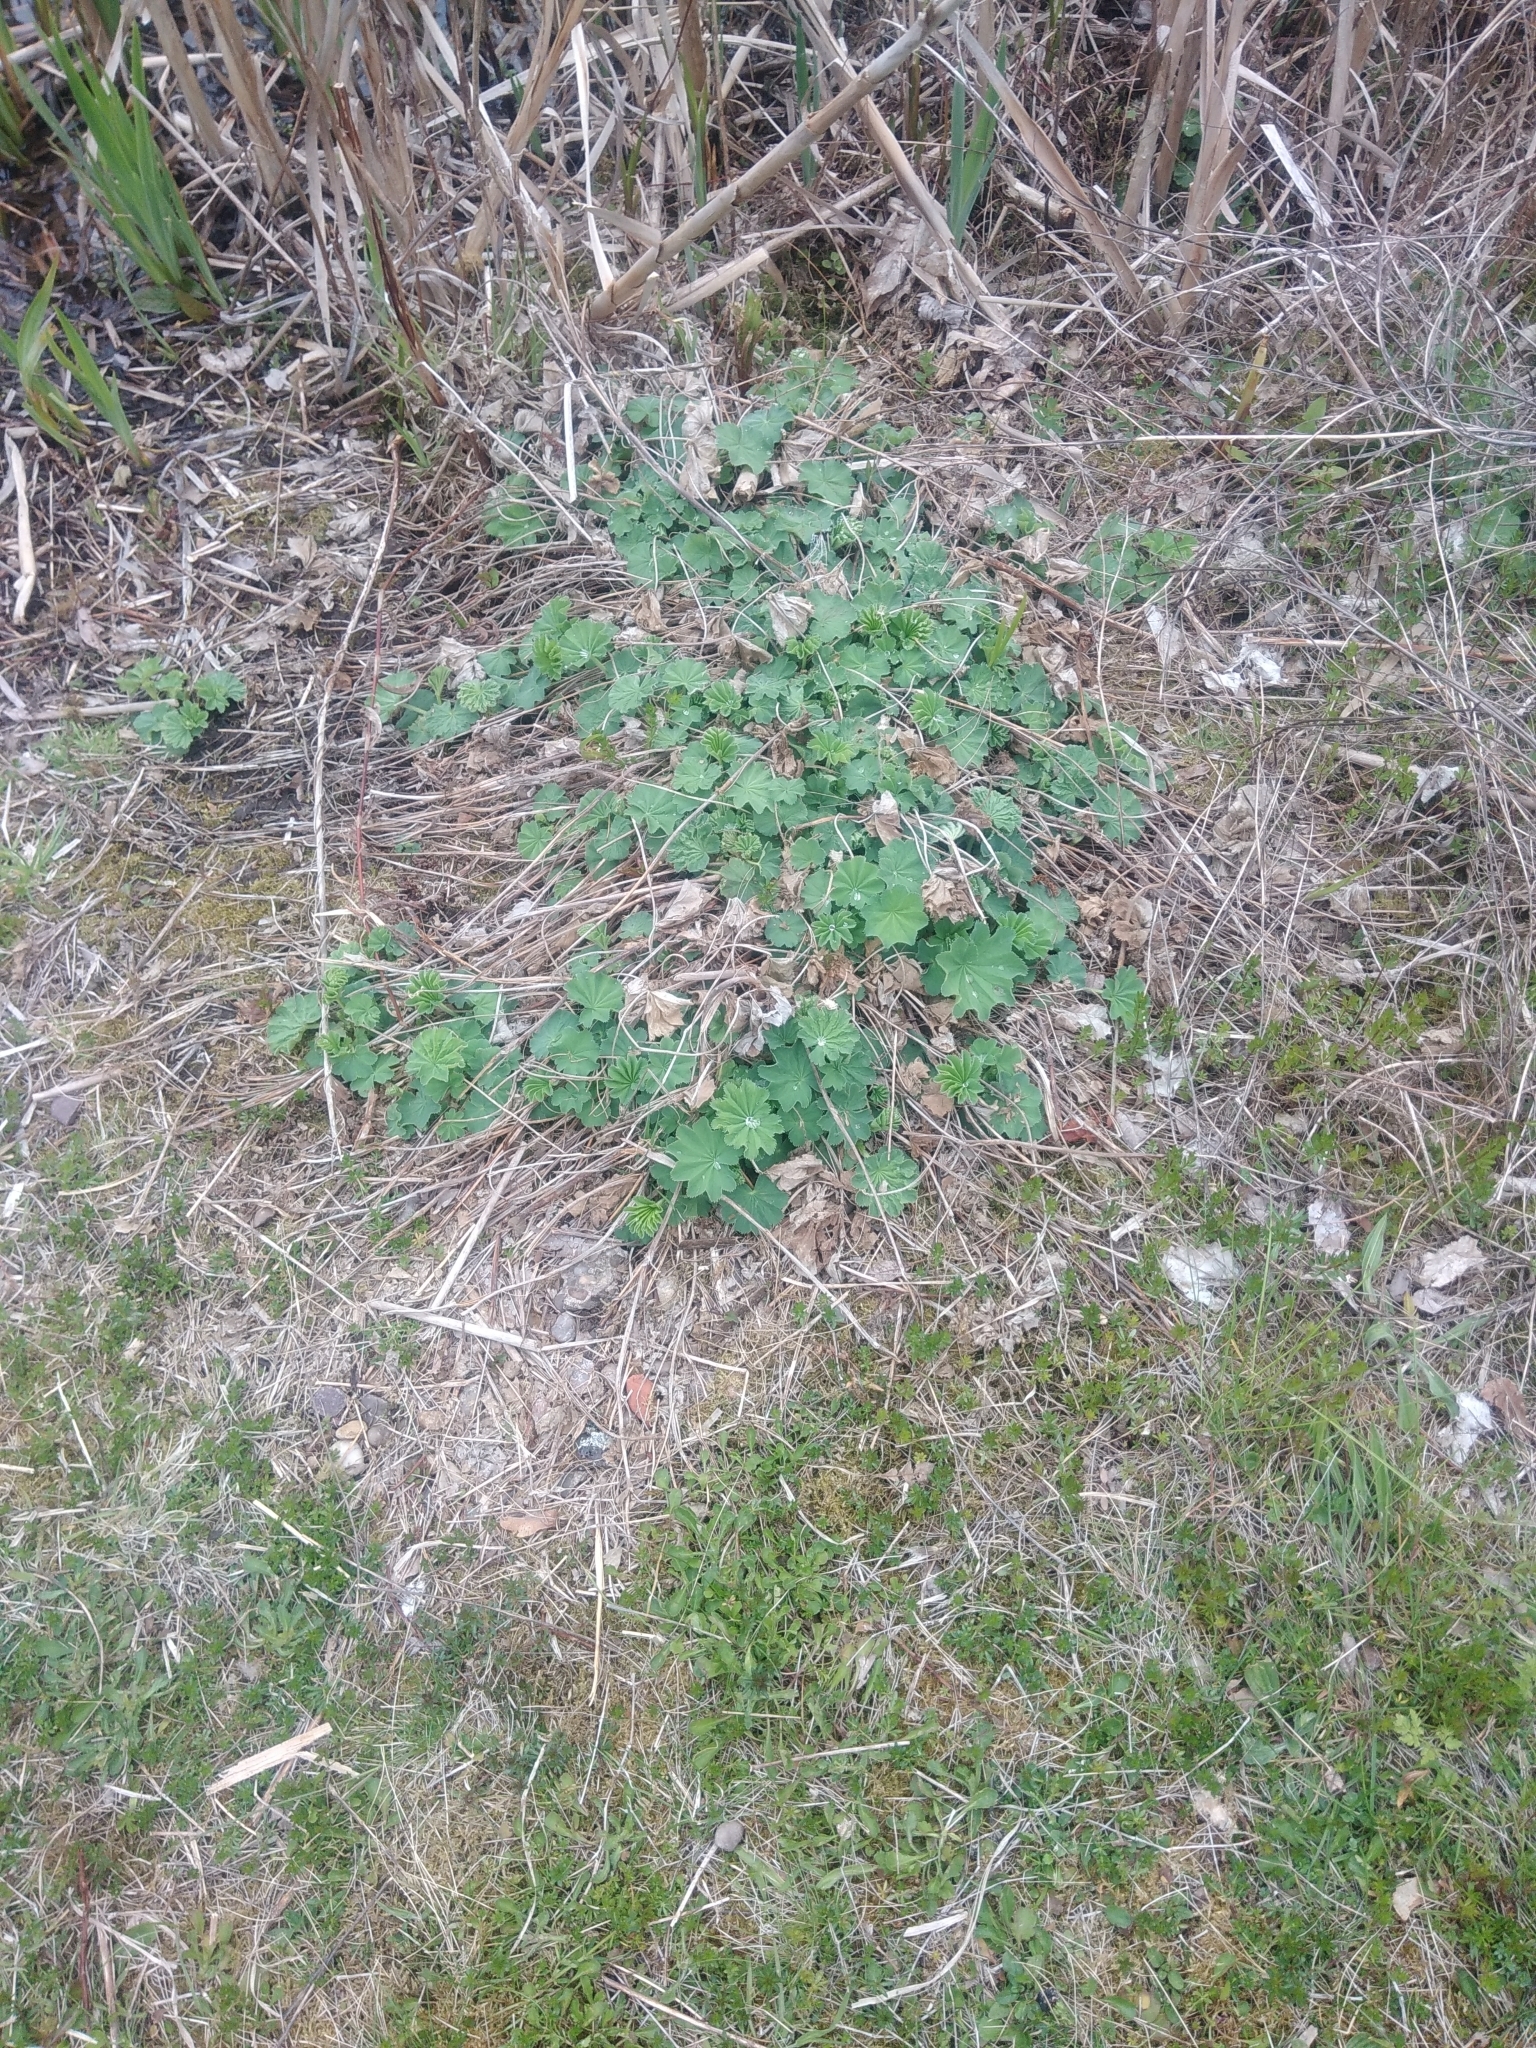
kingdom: Plantae
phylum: Tracheophyta
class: Magnoliopsida
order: Rosales
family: Rosaceae
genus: Alchemilla
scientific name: Alchemilla mollis
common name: Lady's-mantle
